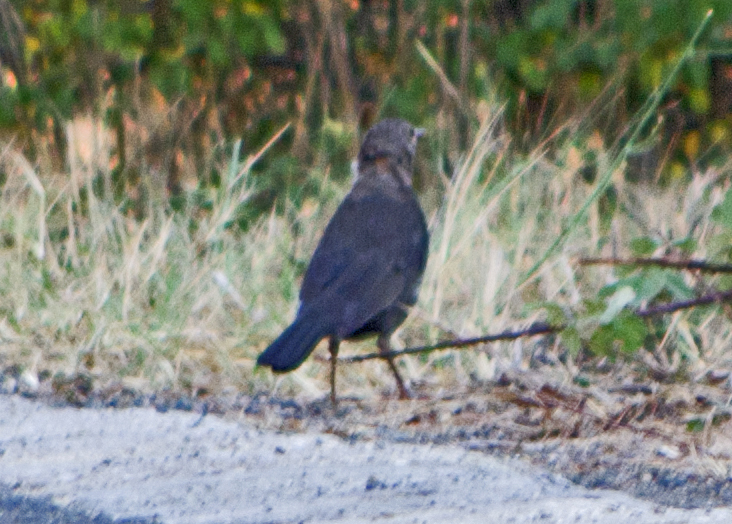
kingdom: Animalia
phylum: Chordata
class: Aves
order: Passeriformes
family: Turdidae
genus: Turdus
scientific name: Turdus merula
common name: Common blackbird
